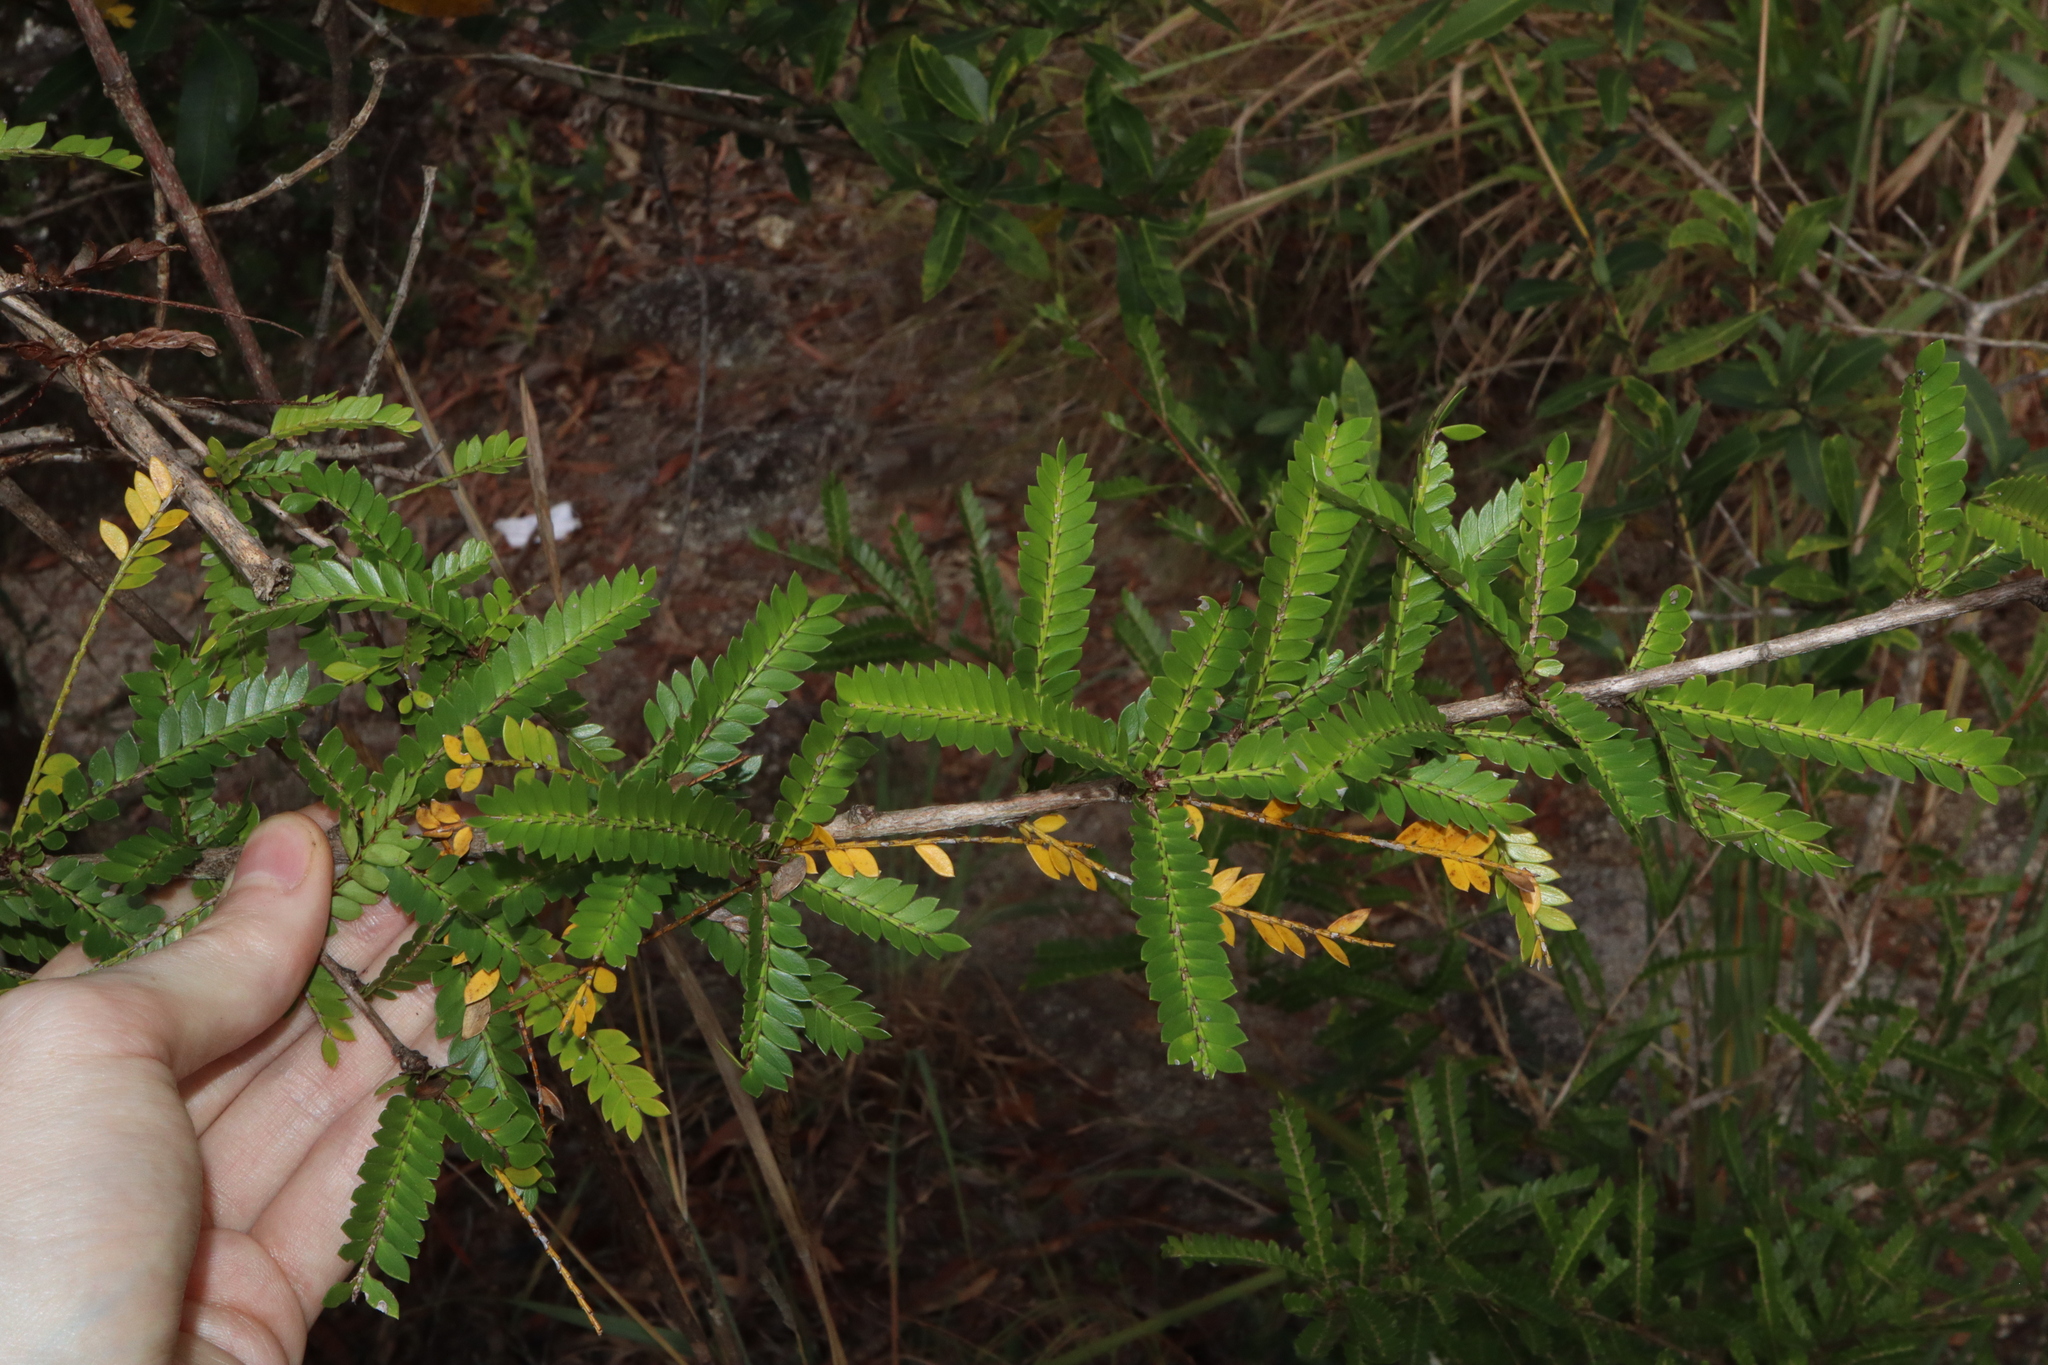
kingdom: Plantae
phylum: Tracheophyta
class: Magnoliopsida
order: Malpighiales
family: Phyllanthaceae
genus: Glochidion
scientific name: Glochidion lamprophyllum
